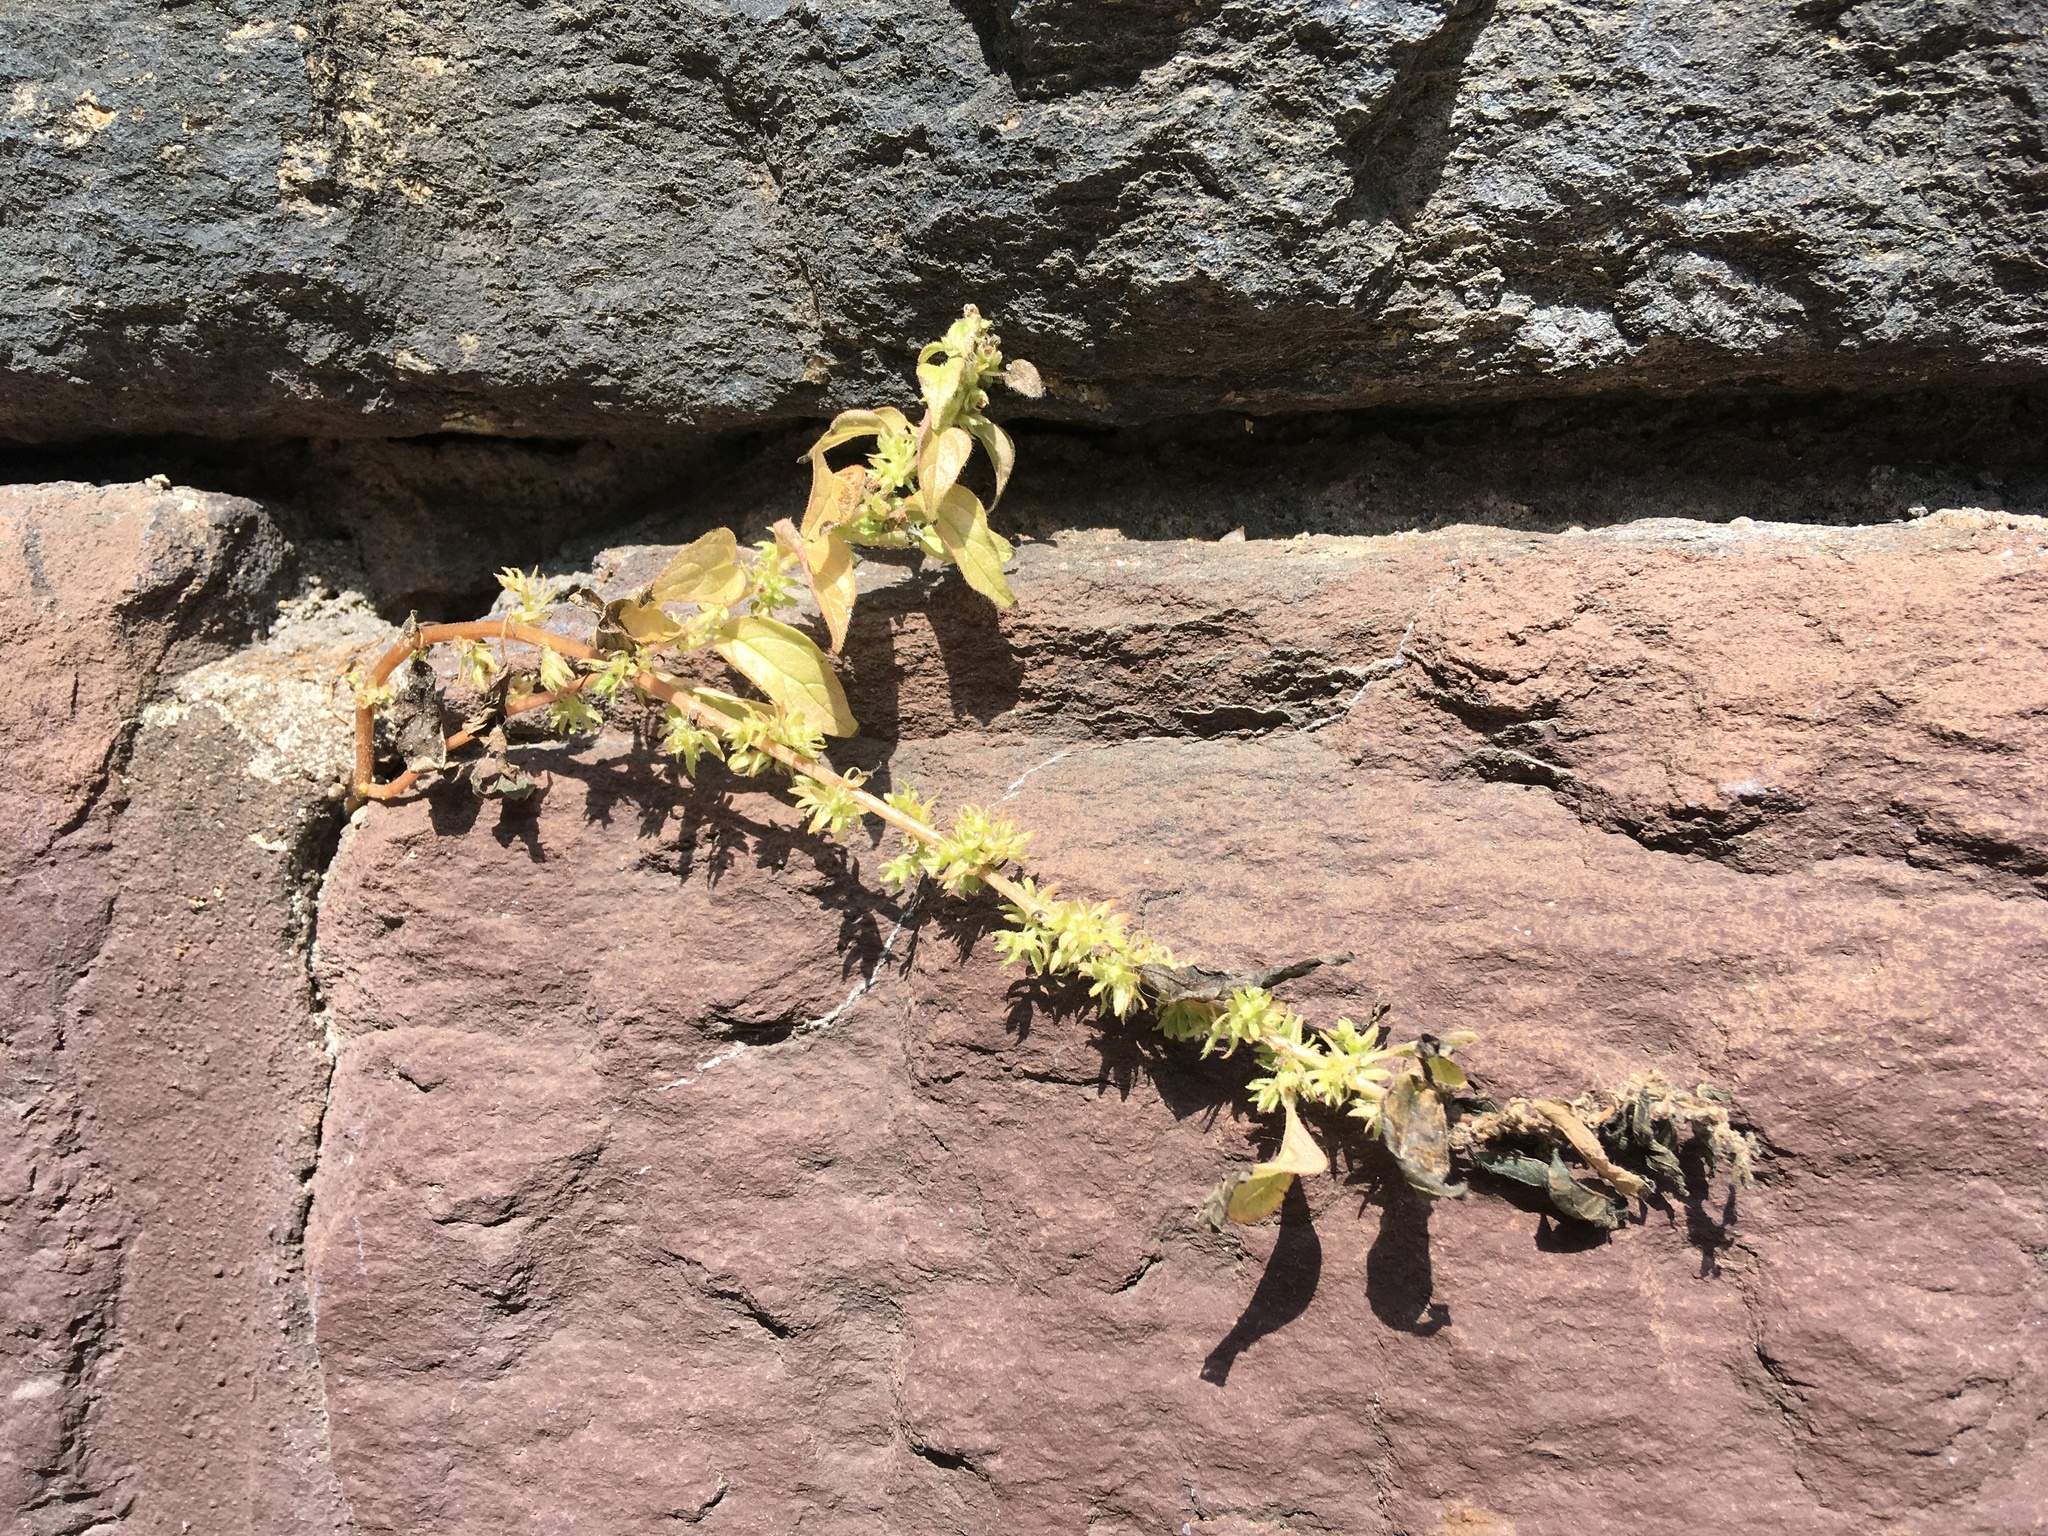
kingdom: Plantae
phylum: Tracheophyta
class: Magnoliopsida
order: Rosales
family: Urticaceae
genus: Parietaria
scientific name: Parietaria pensylvanica
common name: Pennsylvania pellitory
